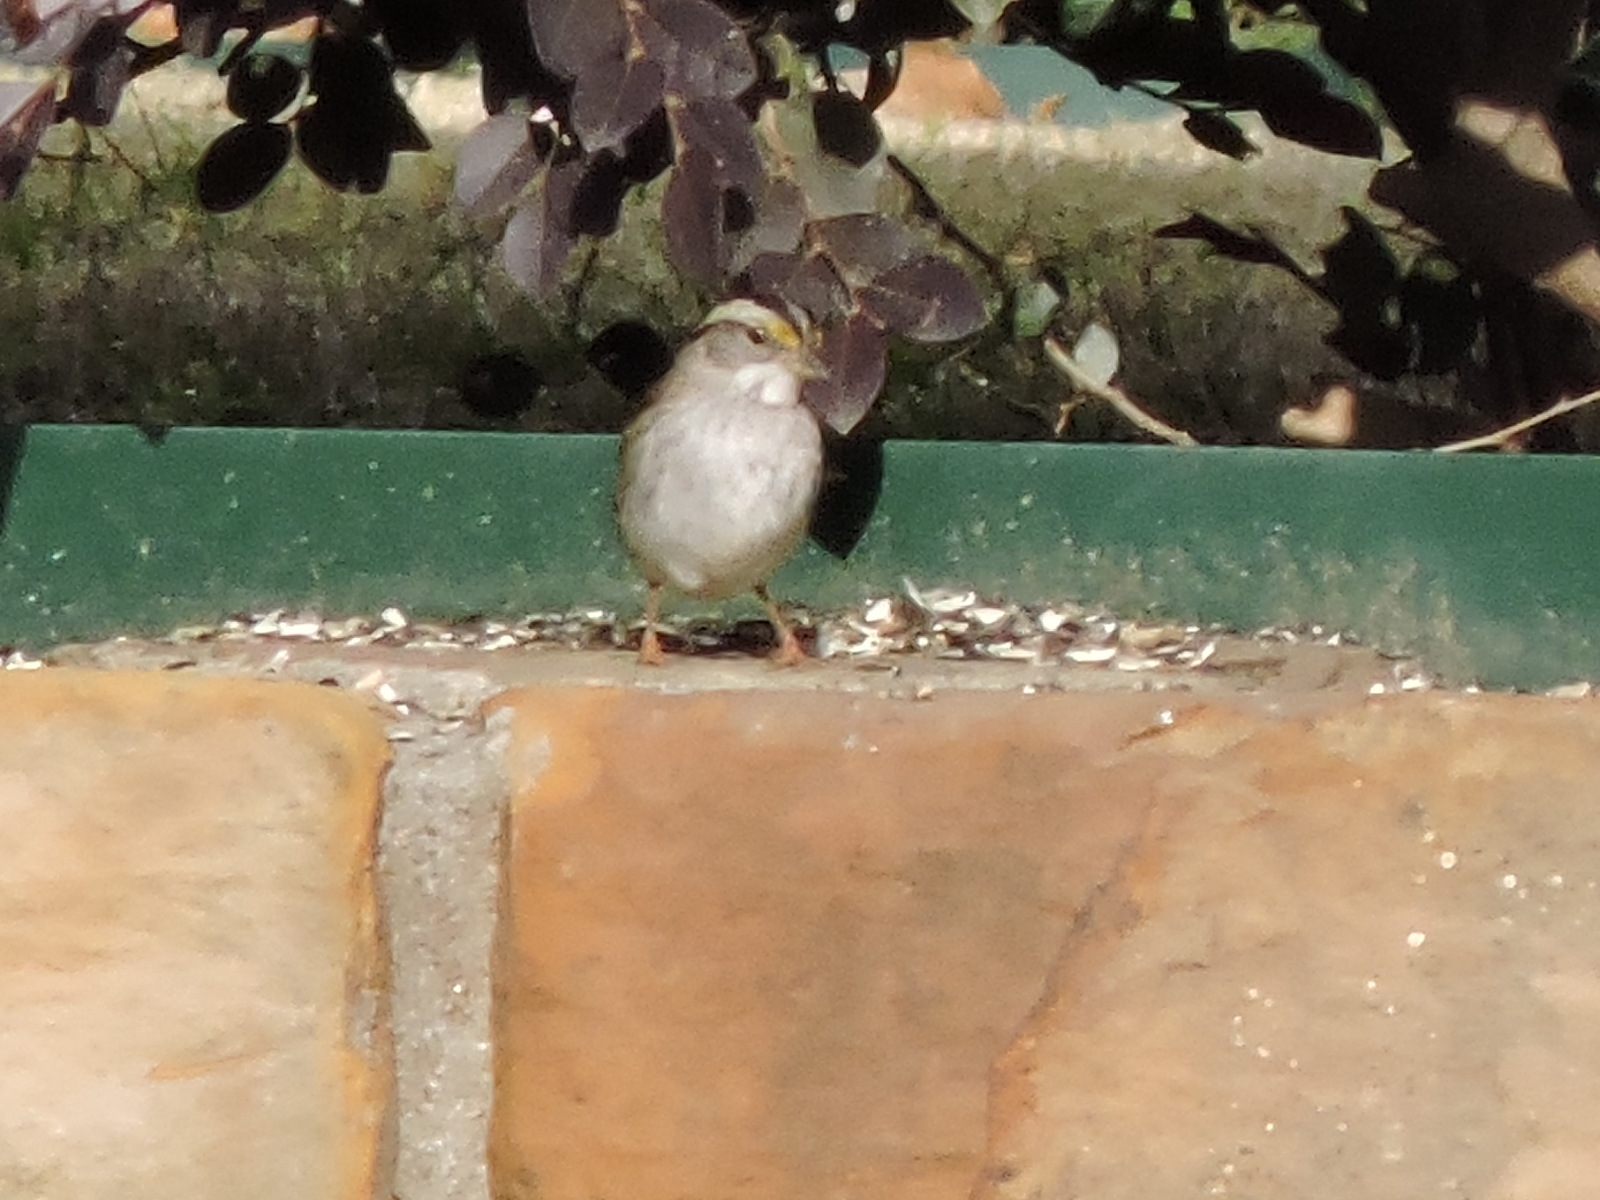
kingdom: Animalia
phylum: Chordata
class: Aves
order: Passeriformes
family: Passerellidae
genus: Zonotrichia
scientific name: Zonotrichia albicollis
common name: White-throated sparrow
